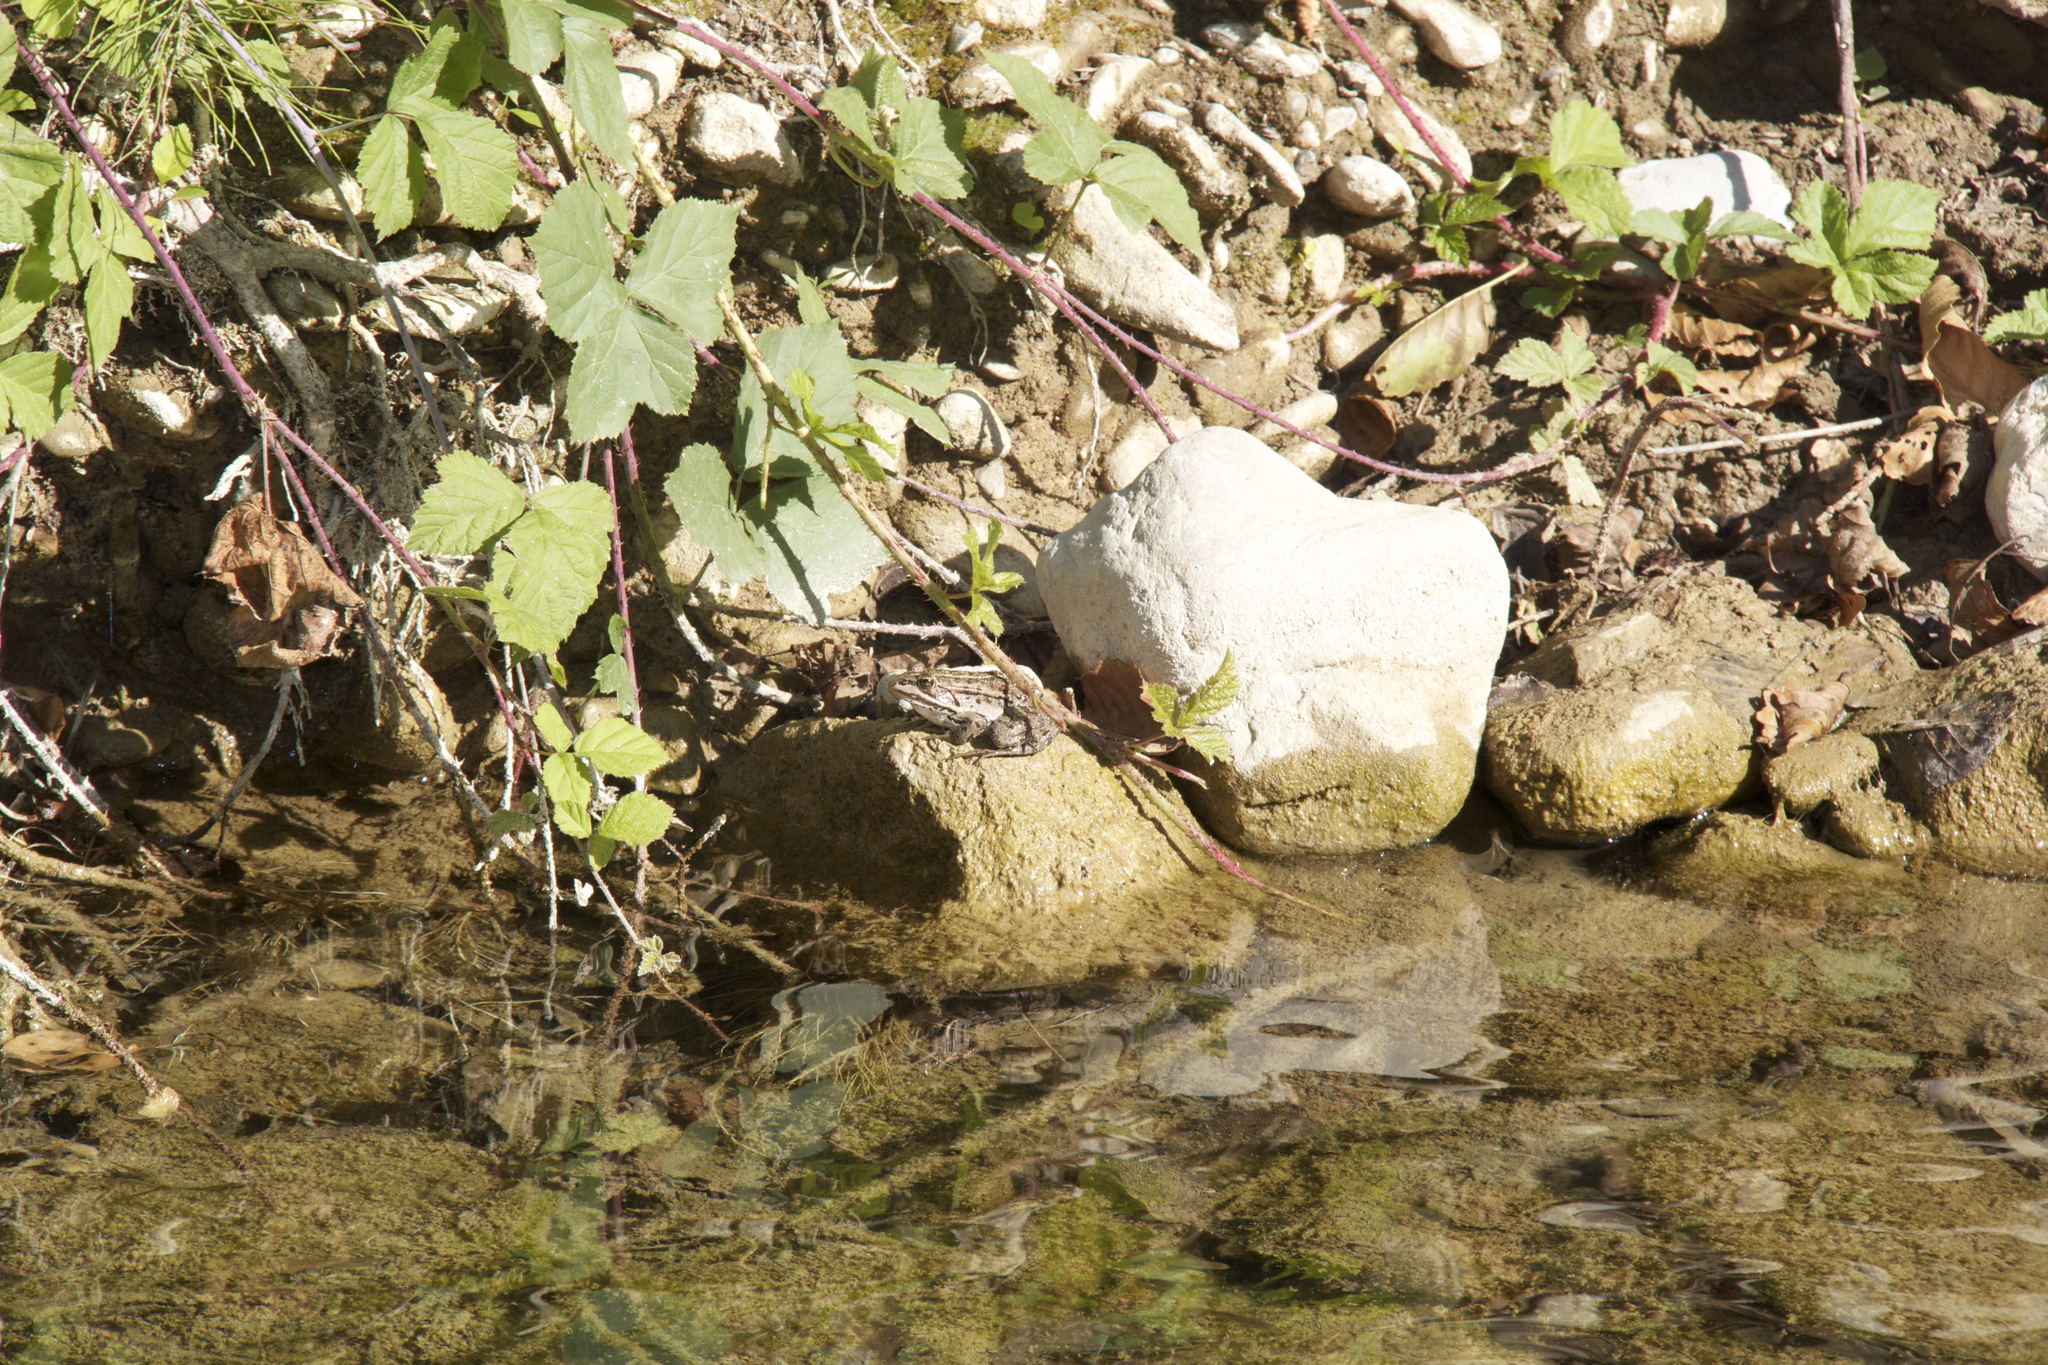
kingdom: Animalia
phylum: Chordata
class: Amphibia
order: Anura
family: Ranidae
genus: Pelophylax
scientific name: Pelophylax
